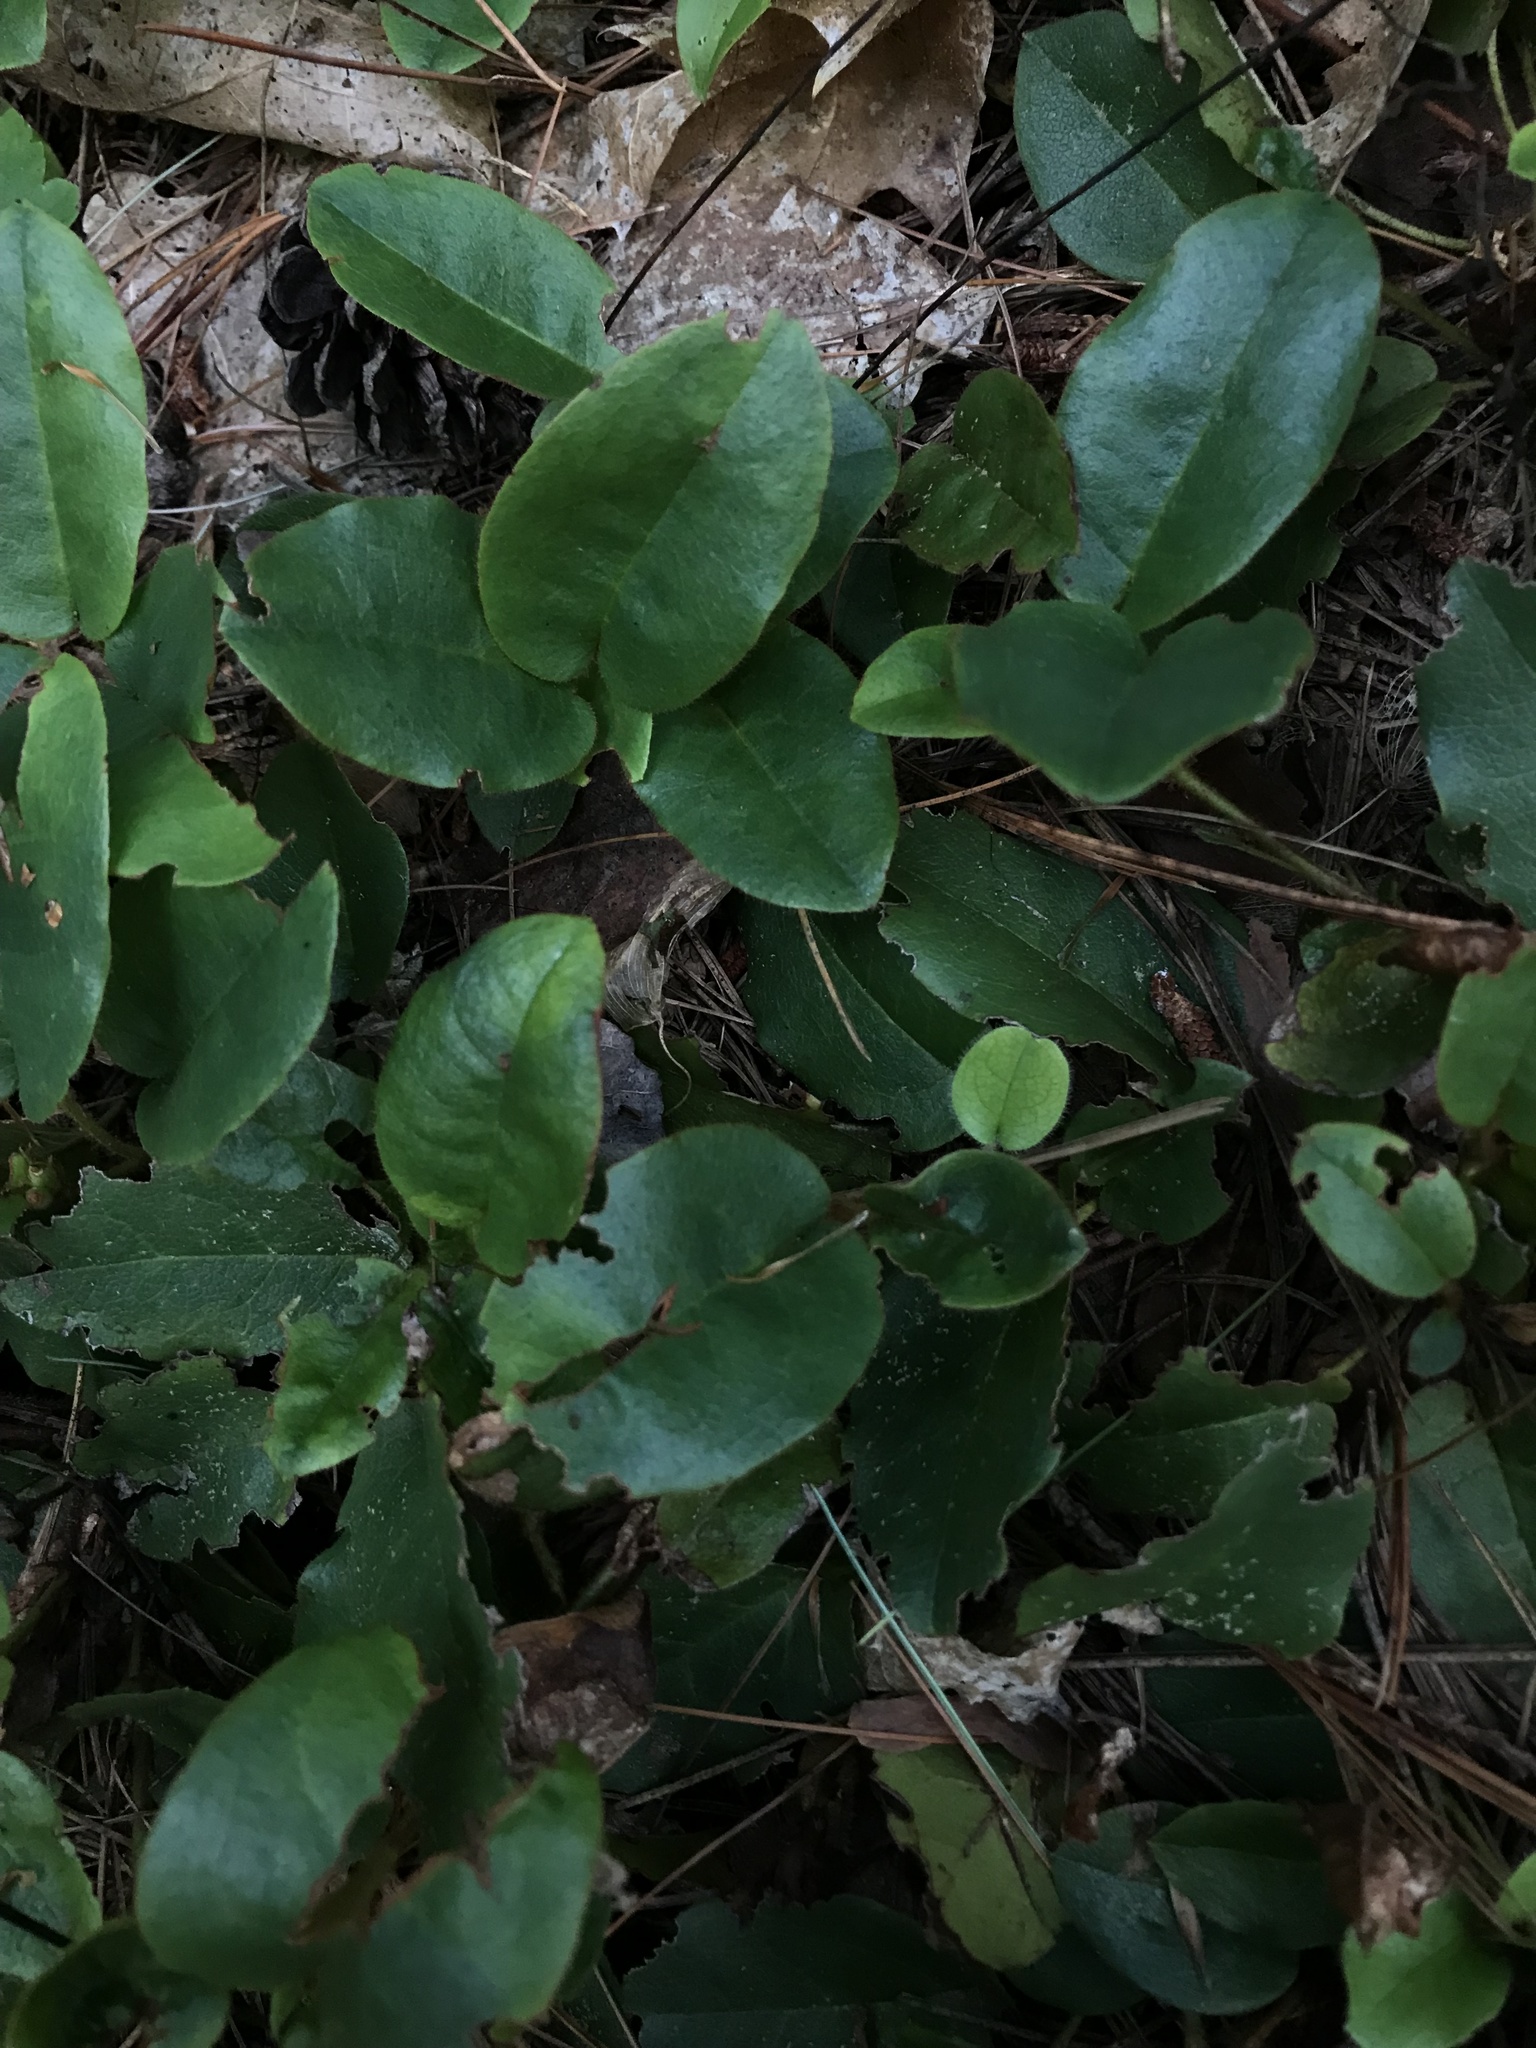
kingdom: Plantae
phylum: Tracheophyta
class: Magnoliopsida
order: Ericales
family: Ericaceae
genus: Epigaea
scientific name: Epigaea repens
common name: Gravelroot
